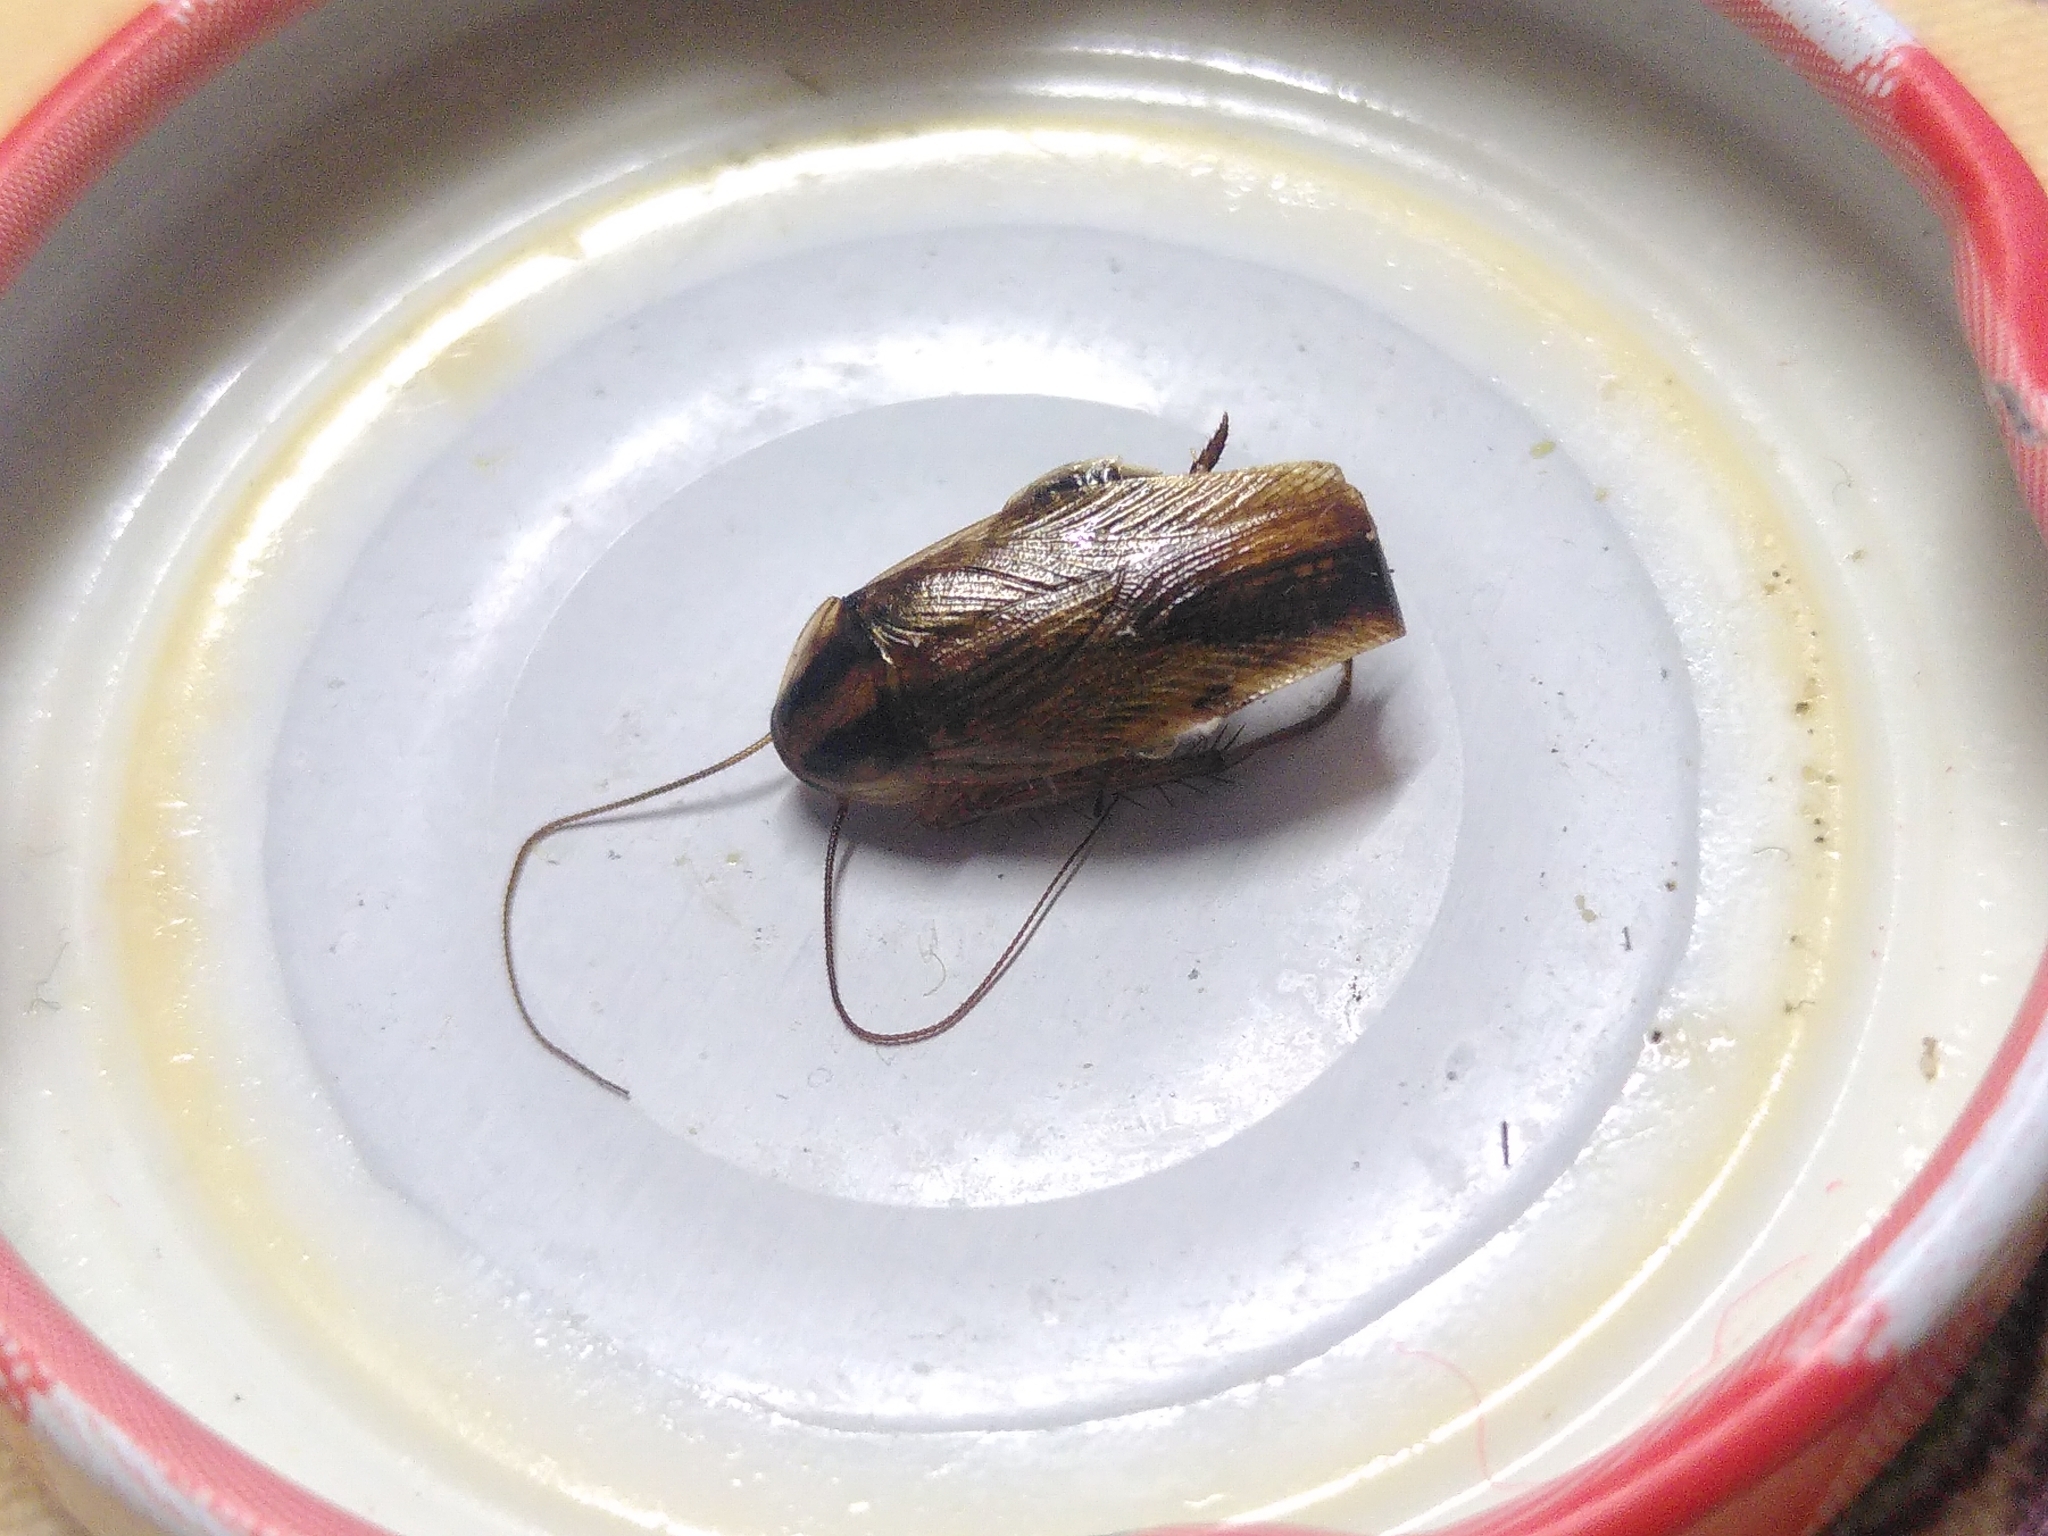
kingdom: Animalia
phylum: Arthropoda
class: Insecta
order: Blattodea
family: Ectobiidae
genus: Blattella
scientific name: Blattella germanica
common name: German cockroach
